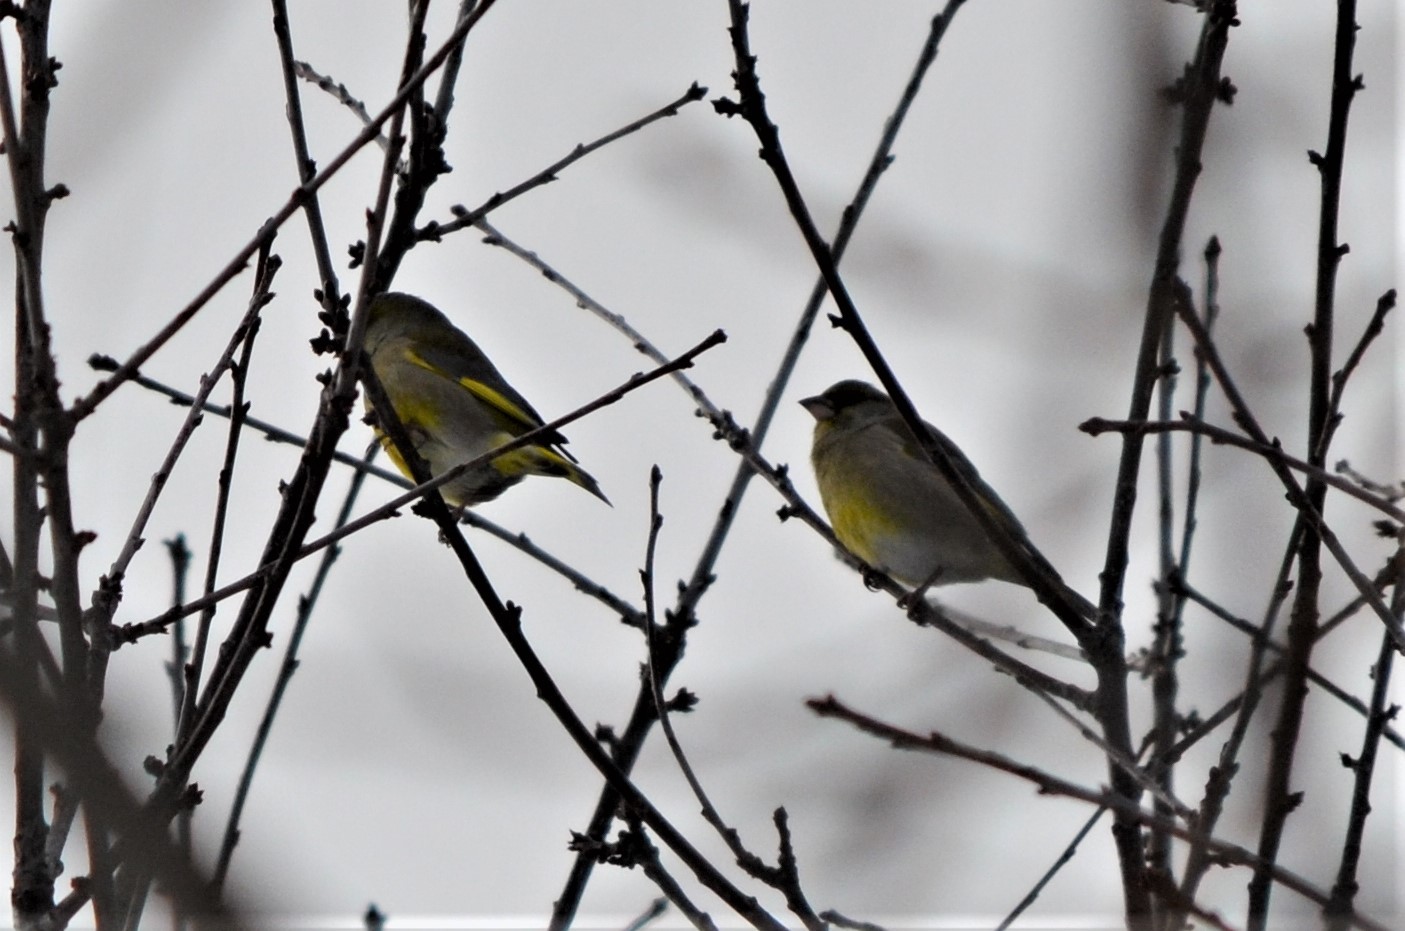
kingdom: Plantae
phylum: Tracheophyta
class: Liliopsida
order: Poales
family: Poaceae
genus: Chloris
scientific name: Chloris chloris
